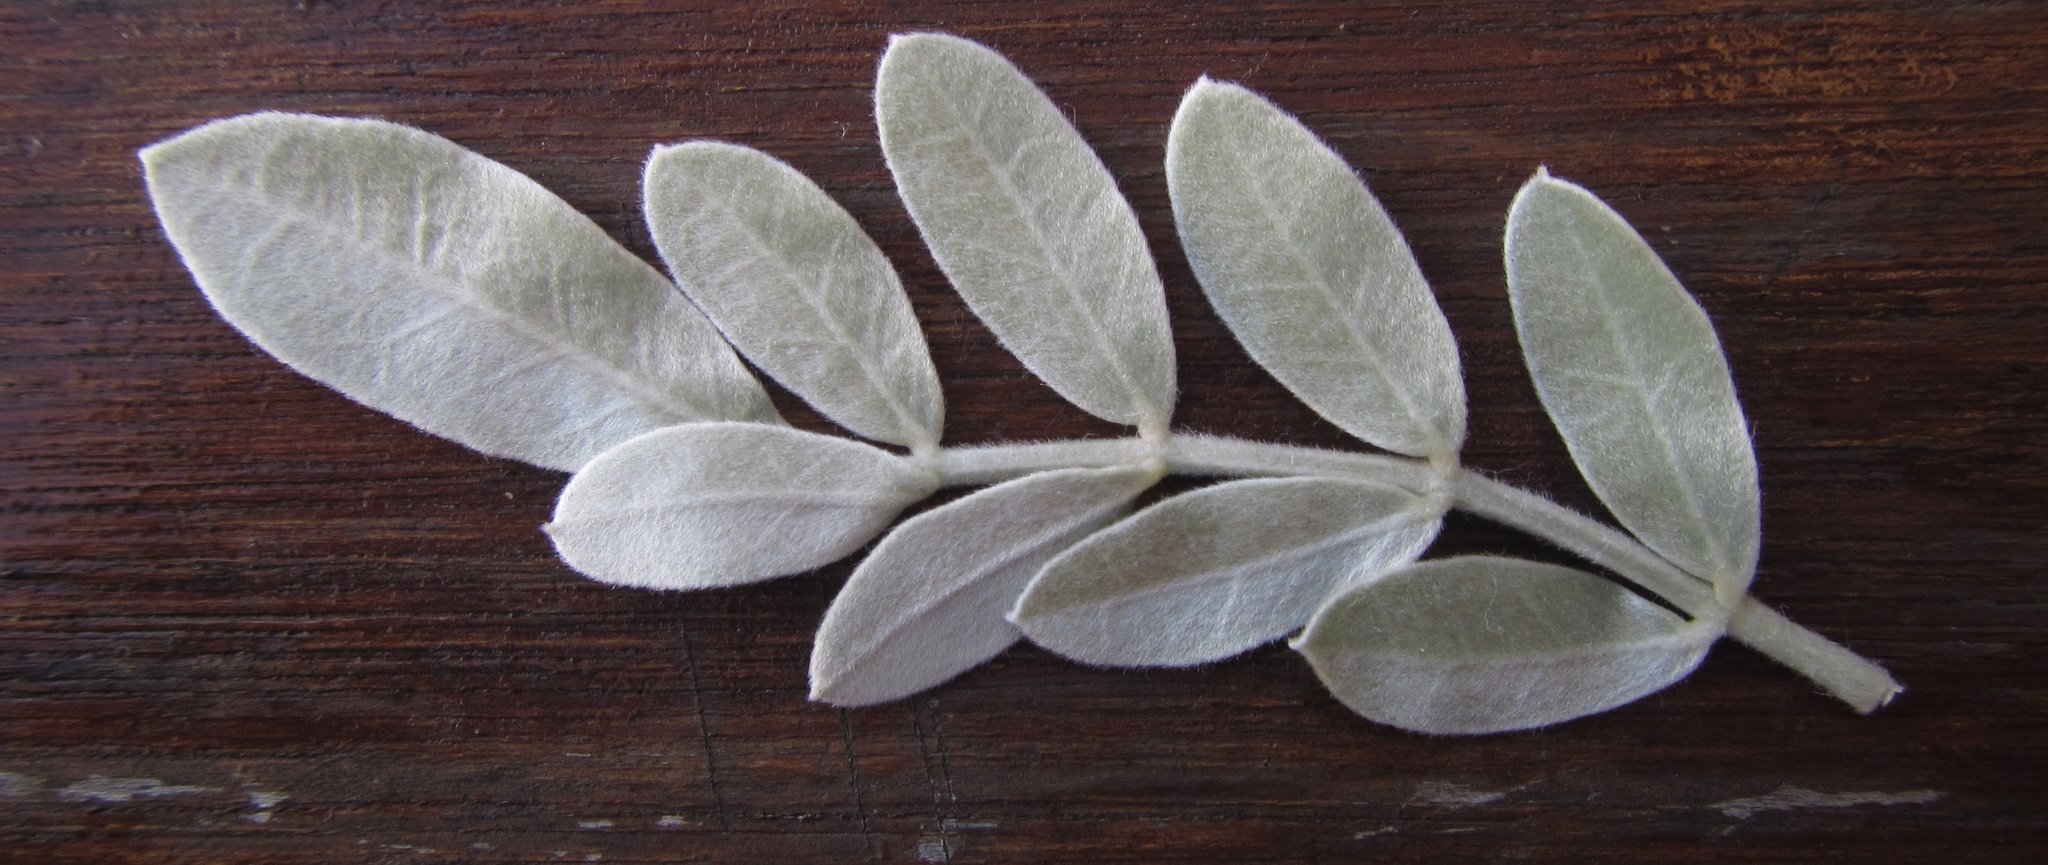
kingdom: Plantae
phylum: Tracheophyta
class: Magnoliopsida
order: Fabales
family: Fabaceae
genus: Sophora
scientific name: Sophora inhambanensis
